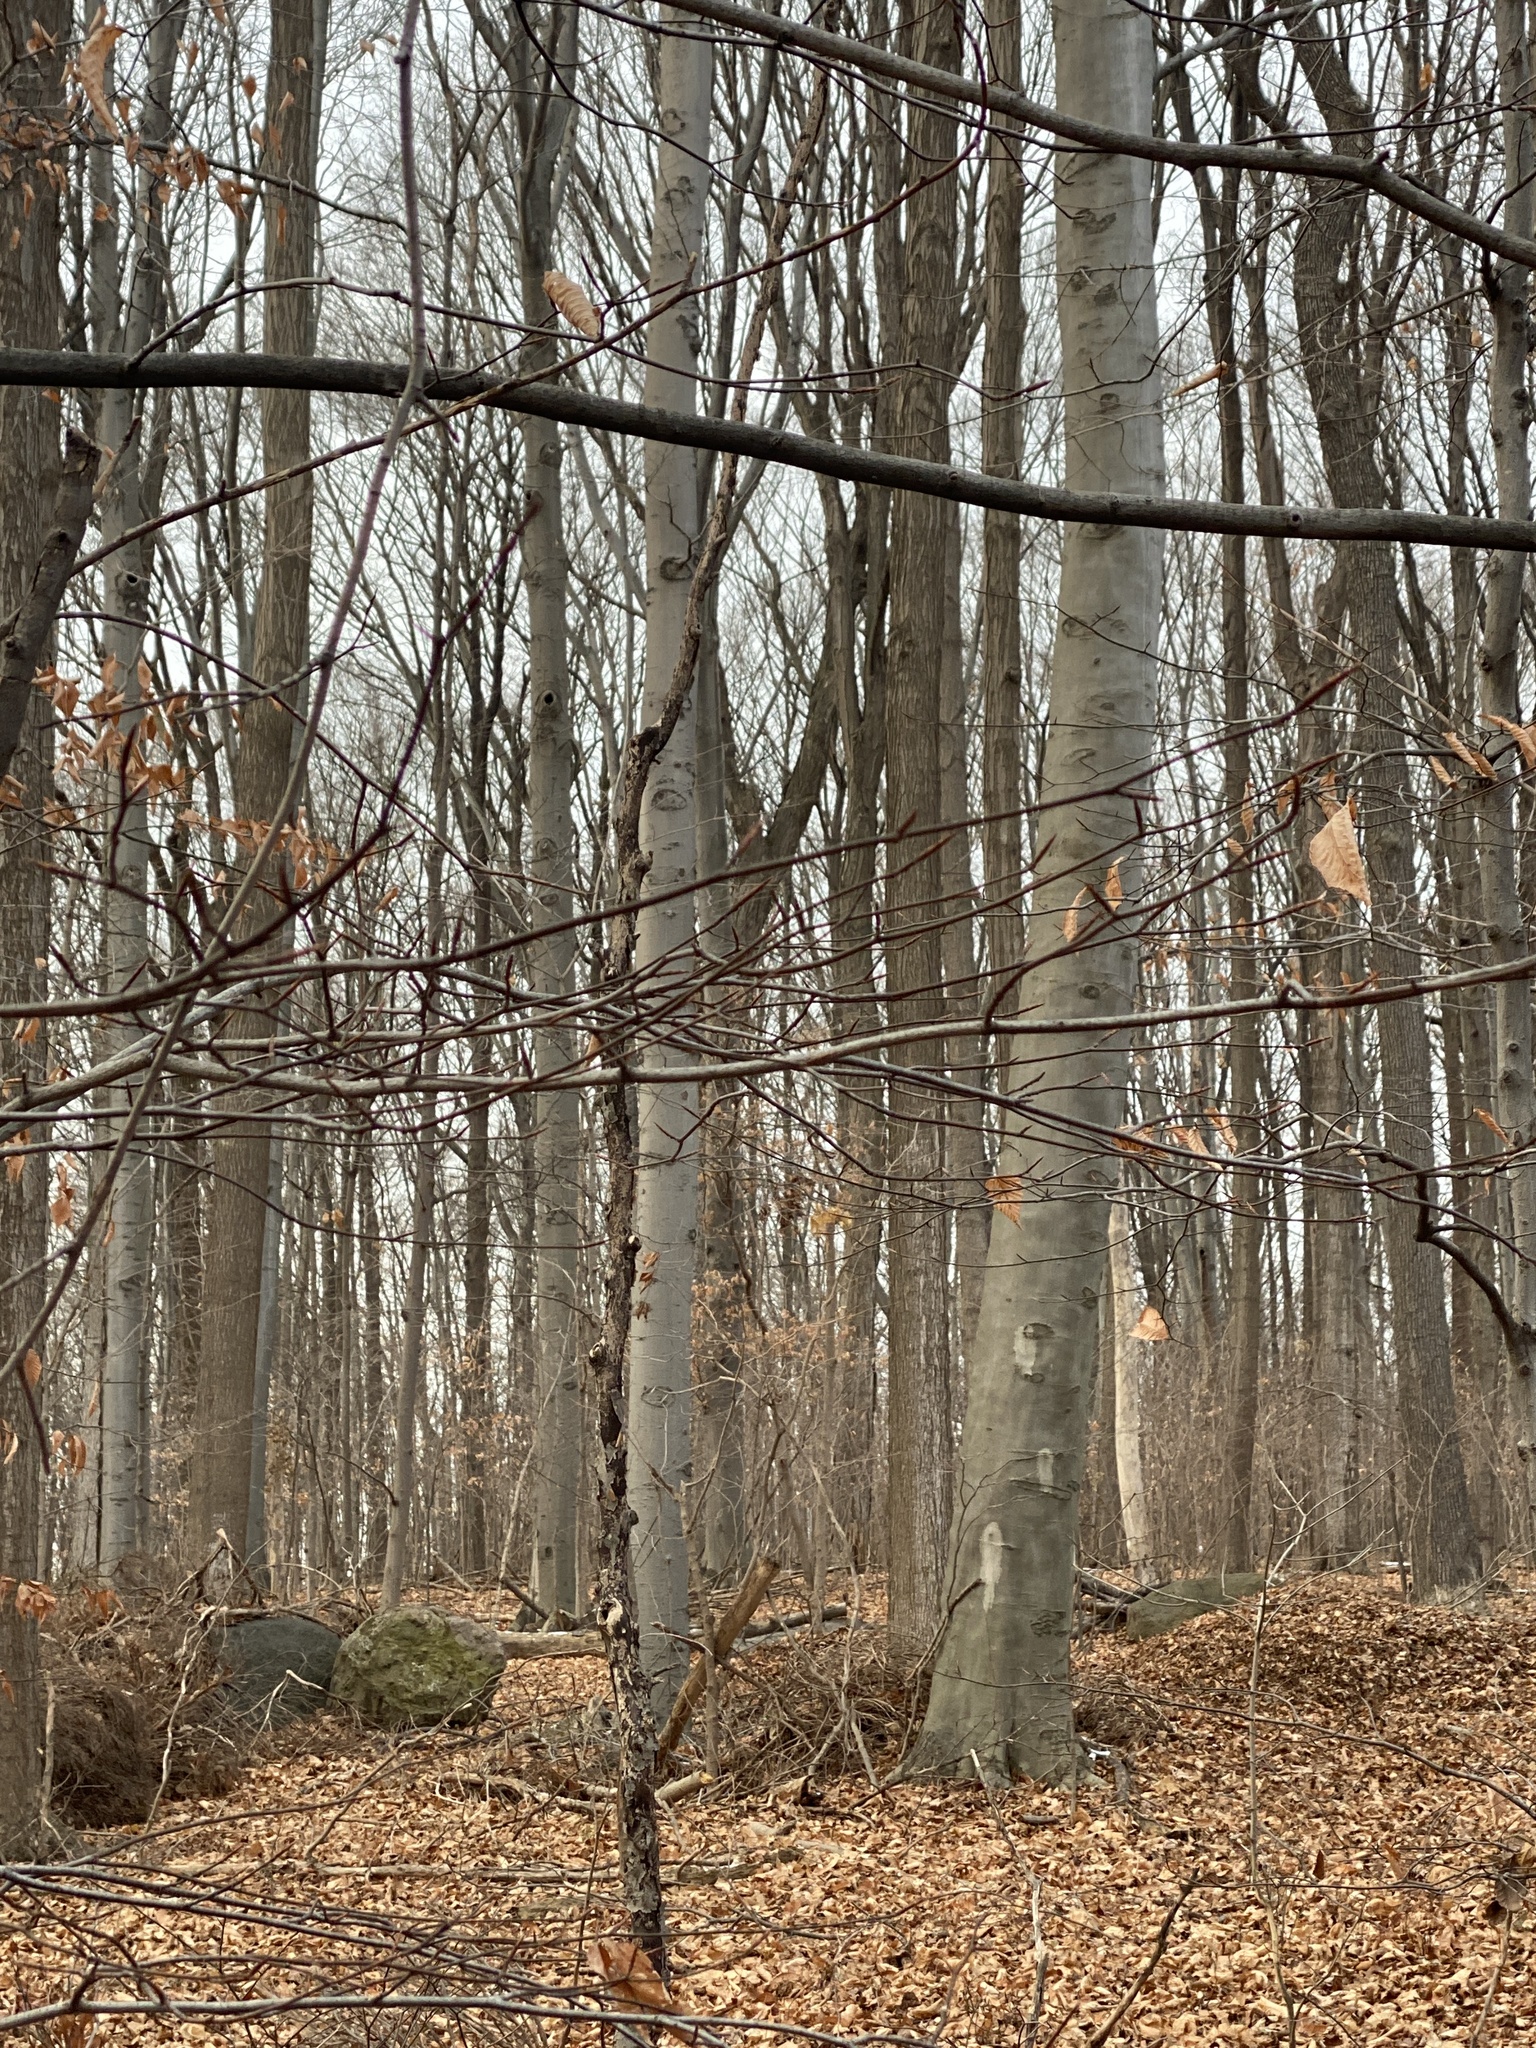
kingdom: Plantae
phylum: Tracheophyta
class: Magnoliopsida
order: Fagales
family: Fagaceae
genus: Fagus
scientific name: Fagus grandifolia
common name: American beech
